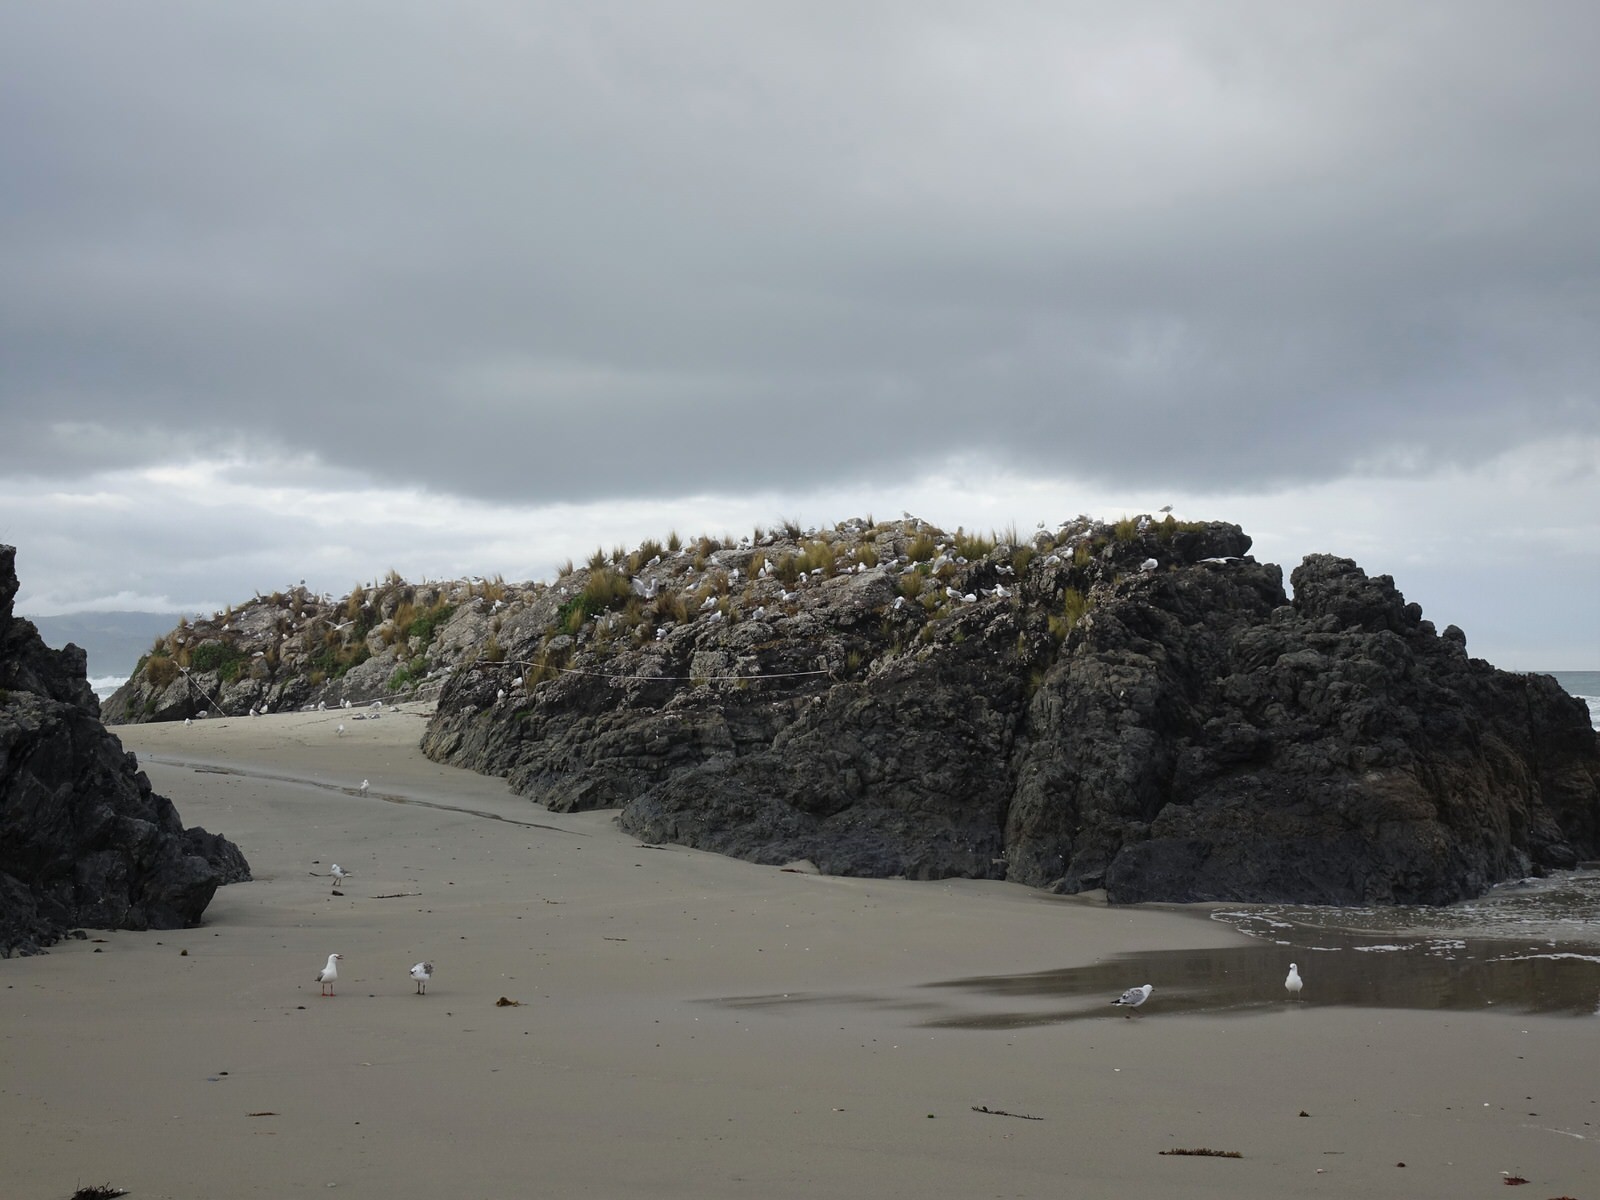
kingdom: Animalia
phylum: Chordata
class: Aves
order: Charadriiformes
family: Laridae
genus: Chroicocephalus
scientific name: Chroicocephalus novaehollandiae
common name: Silver gull
